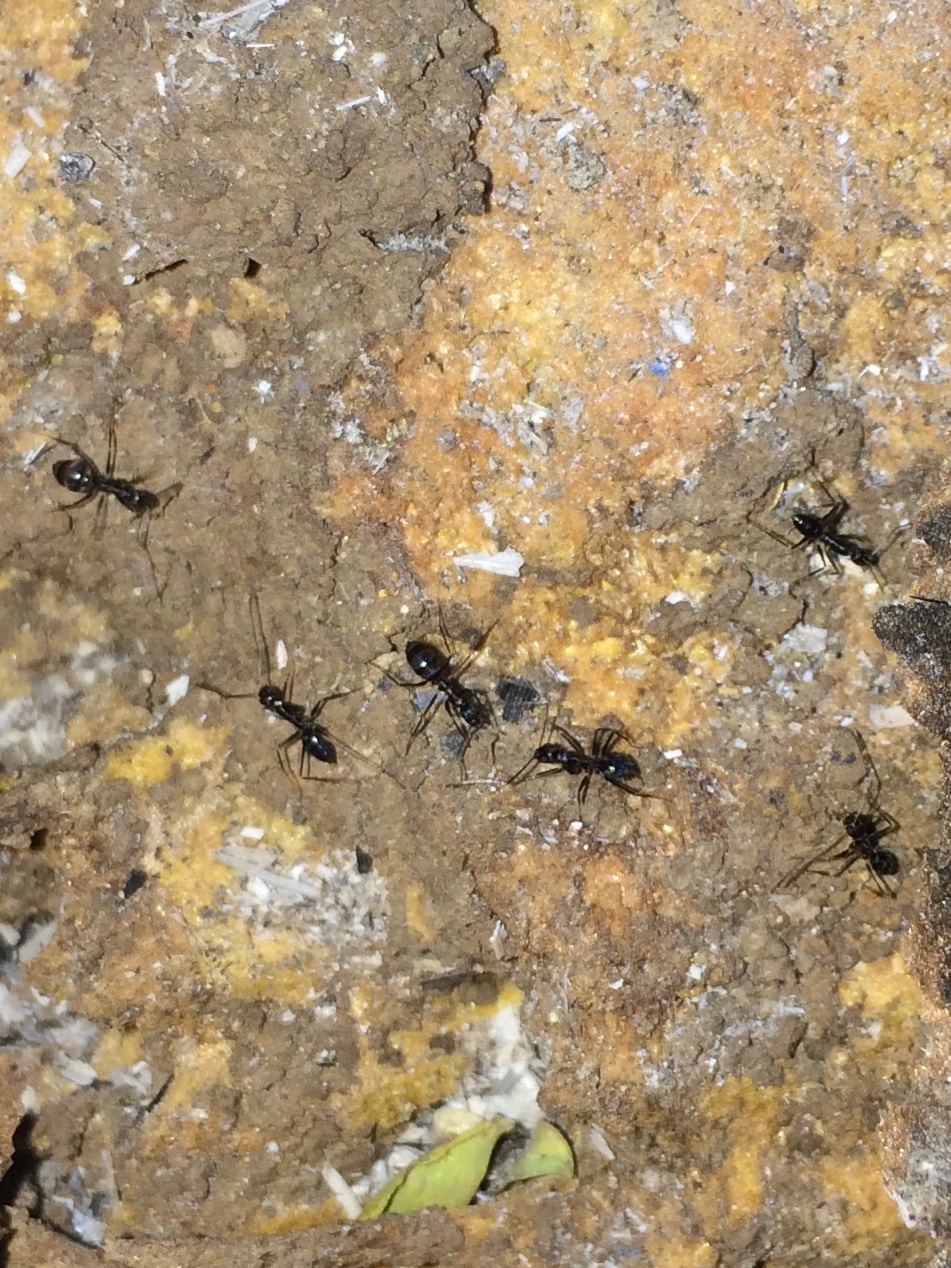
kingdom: Animalia
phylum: Arthropoda
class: Insecta
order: Hymenoptera
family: Formicidae
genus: Paratrechina
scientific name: Paratrechina longicornis
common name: Longhorned crazy ant
